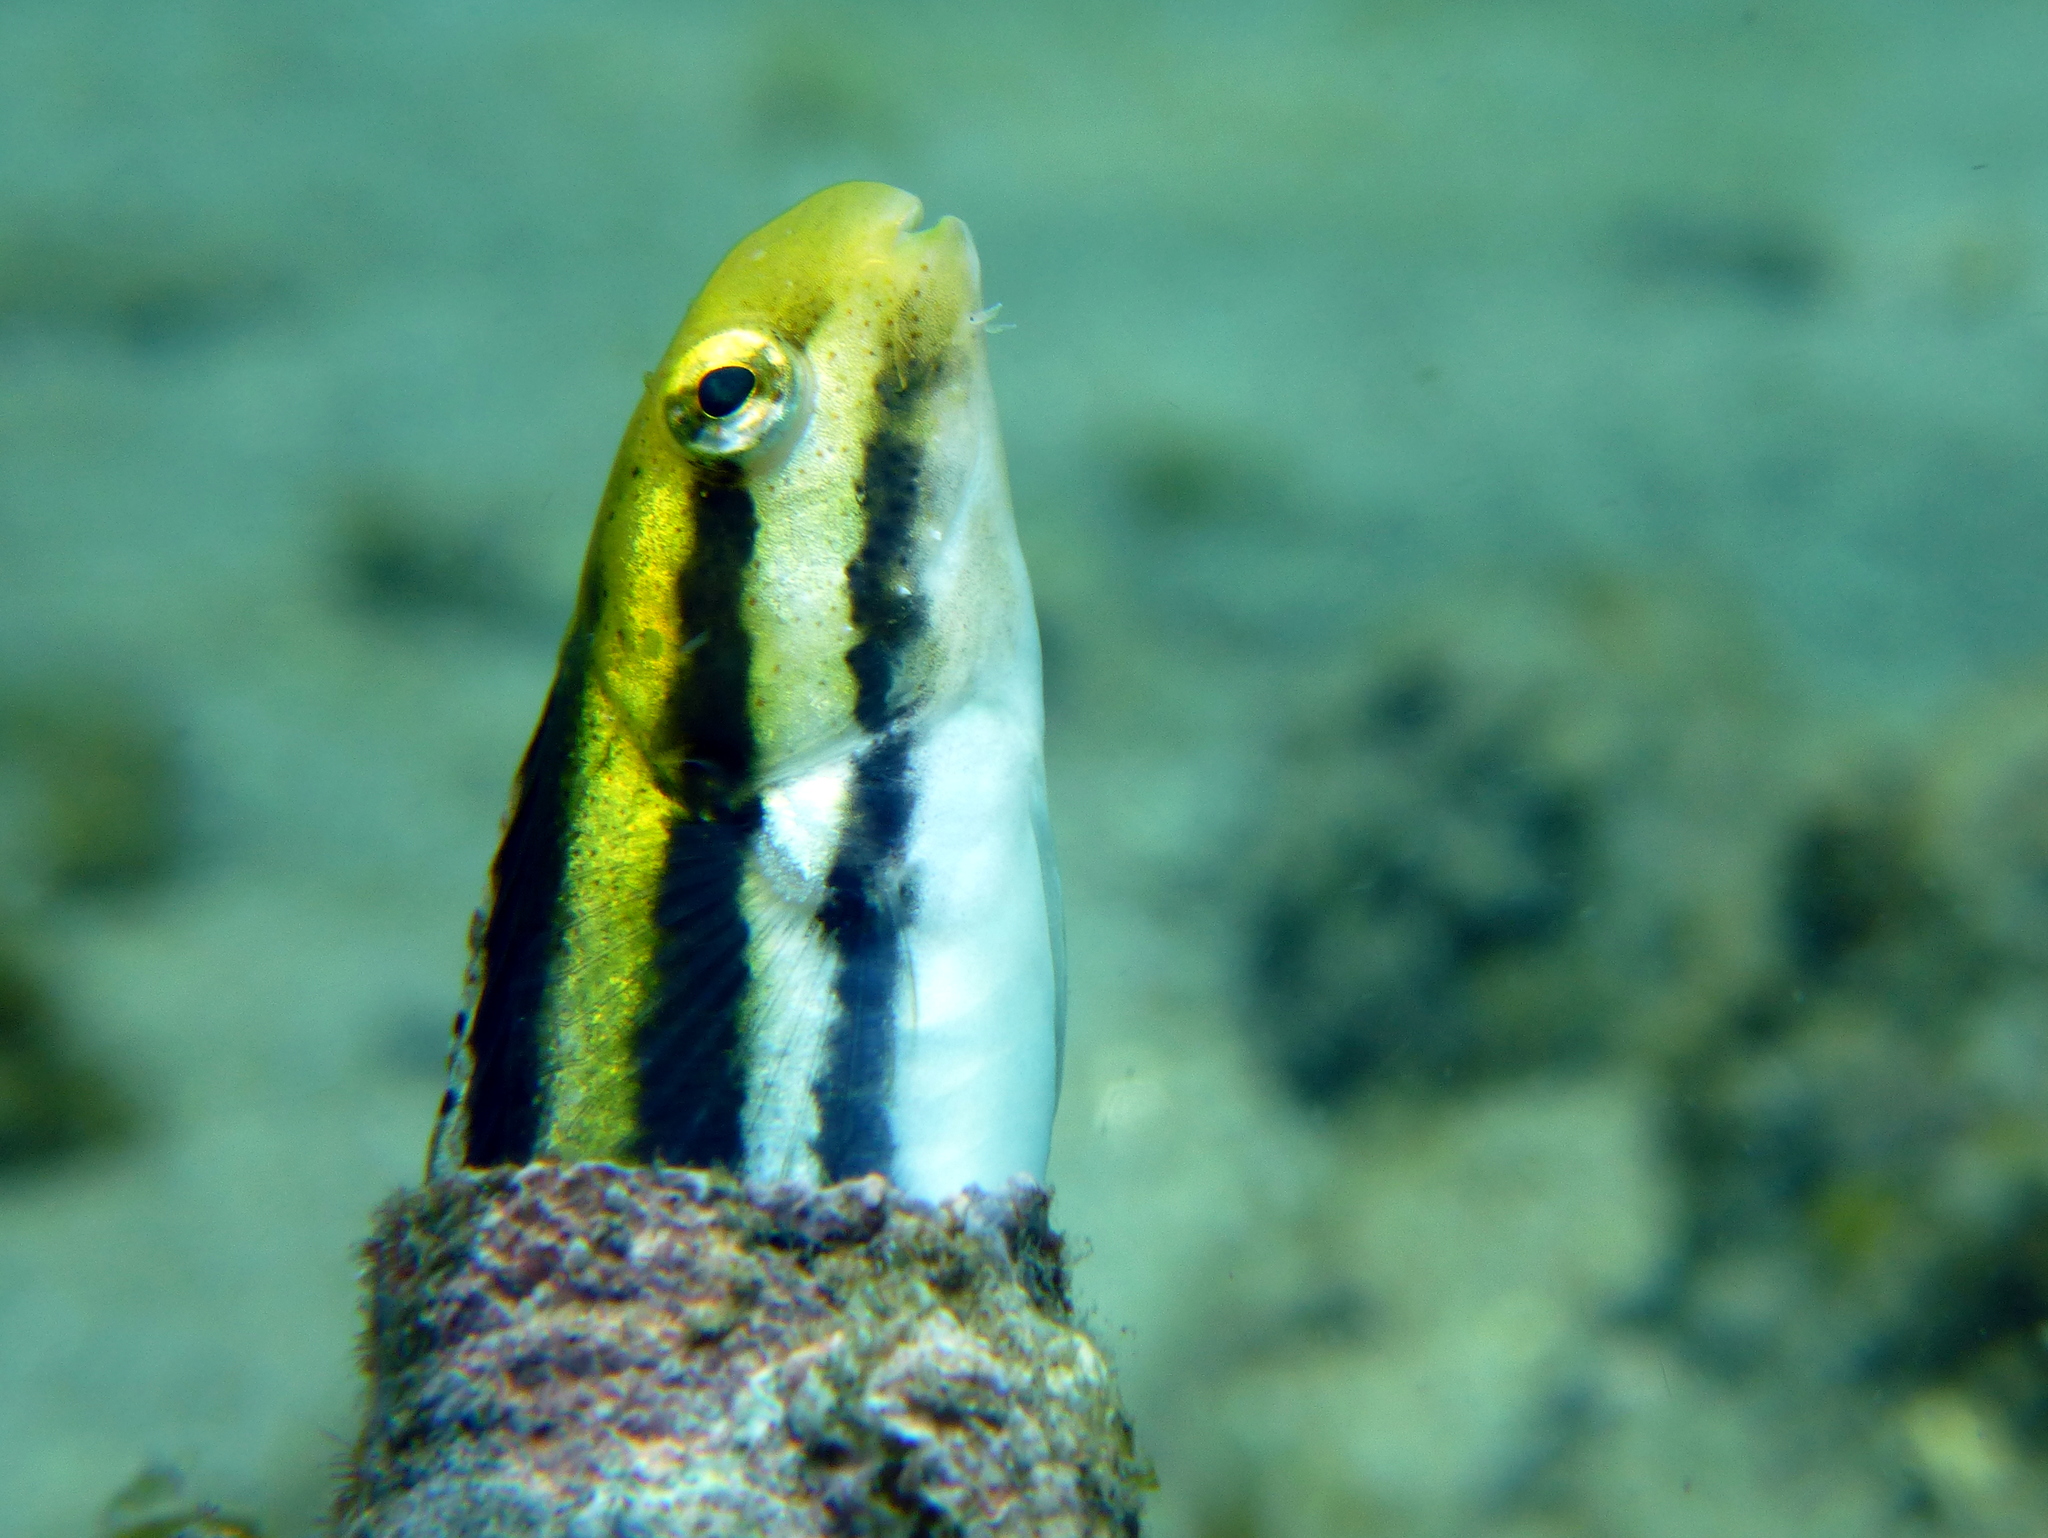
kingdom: Animalia
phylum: Chordata
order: Perciformes
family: Blenniidae
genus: Petroscirtes
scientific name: Petroscirtes breviceps
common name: Short-head sabretooth blenny
